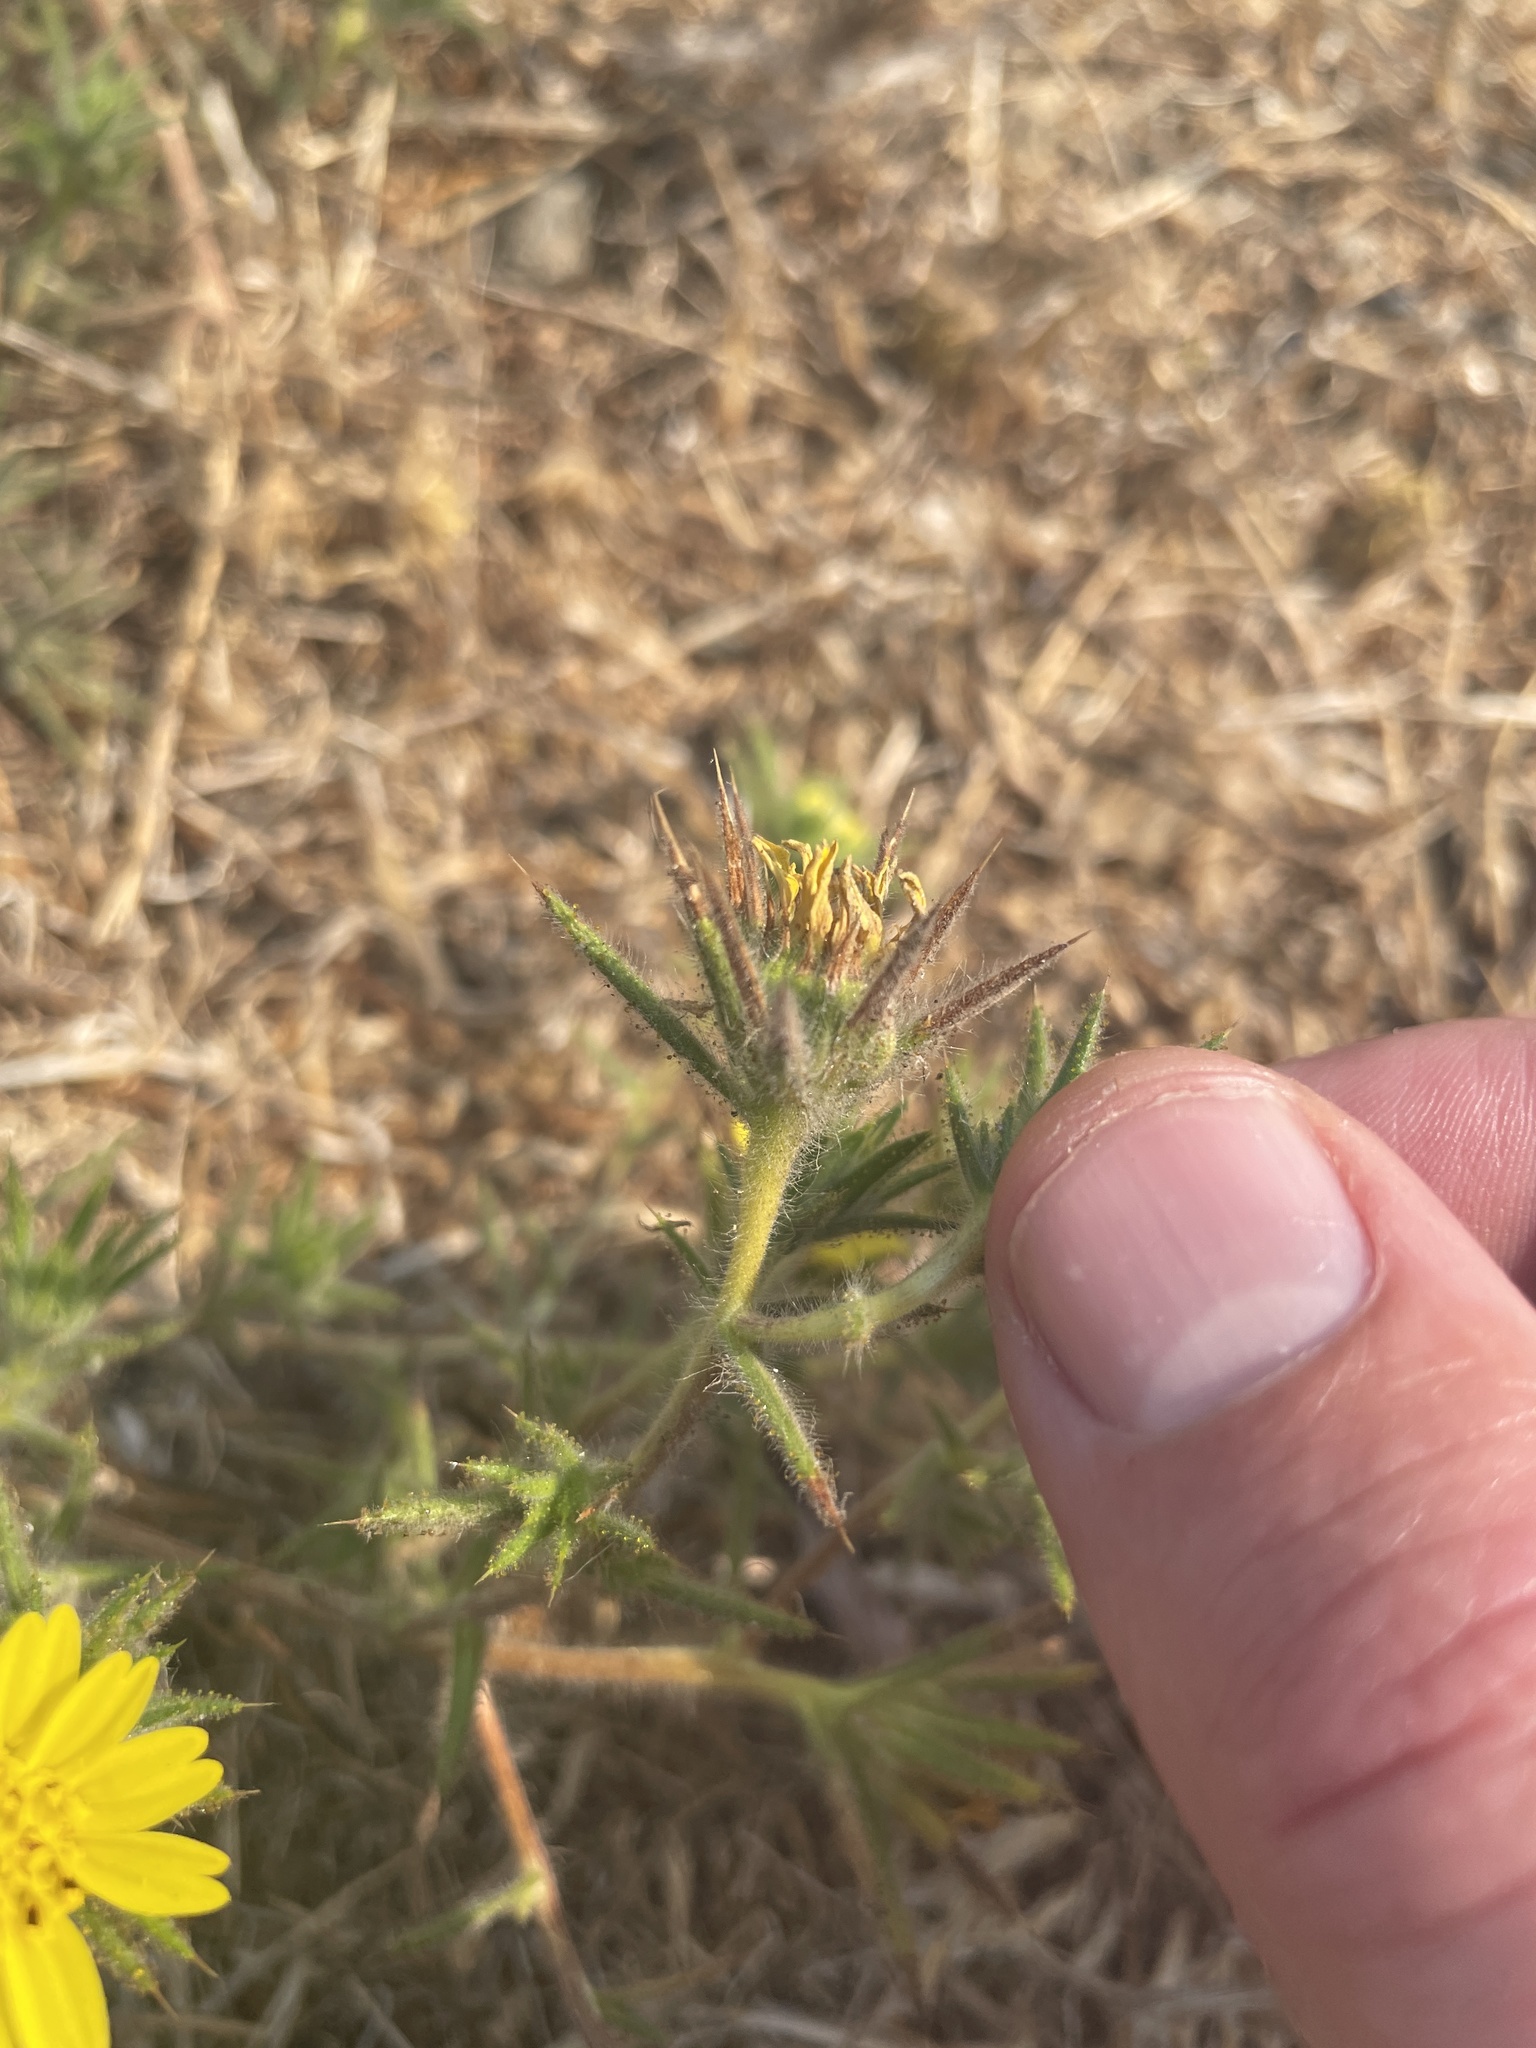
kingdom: Plantae
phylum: Tracheophyta
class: Magnoliopsida
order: Asterales
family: Asteraceae
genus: Centromadia
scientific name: Centromadia fitchii
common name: Fitch's spikeweed
